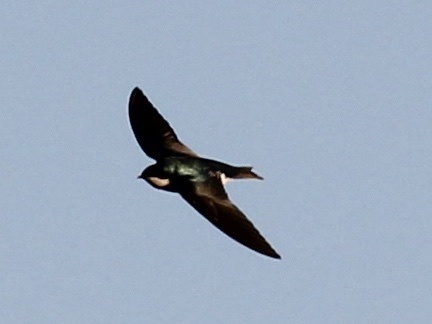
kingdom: Animalia
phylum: Chordata
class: Aves
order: Passeriformes
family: Hirundinidae
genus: Tachycineta
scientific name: Tachycineta bicolor
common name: Tree swallow
